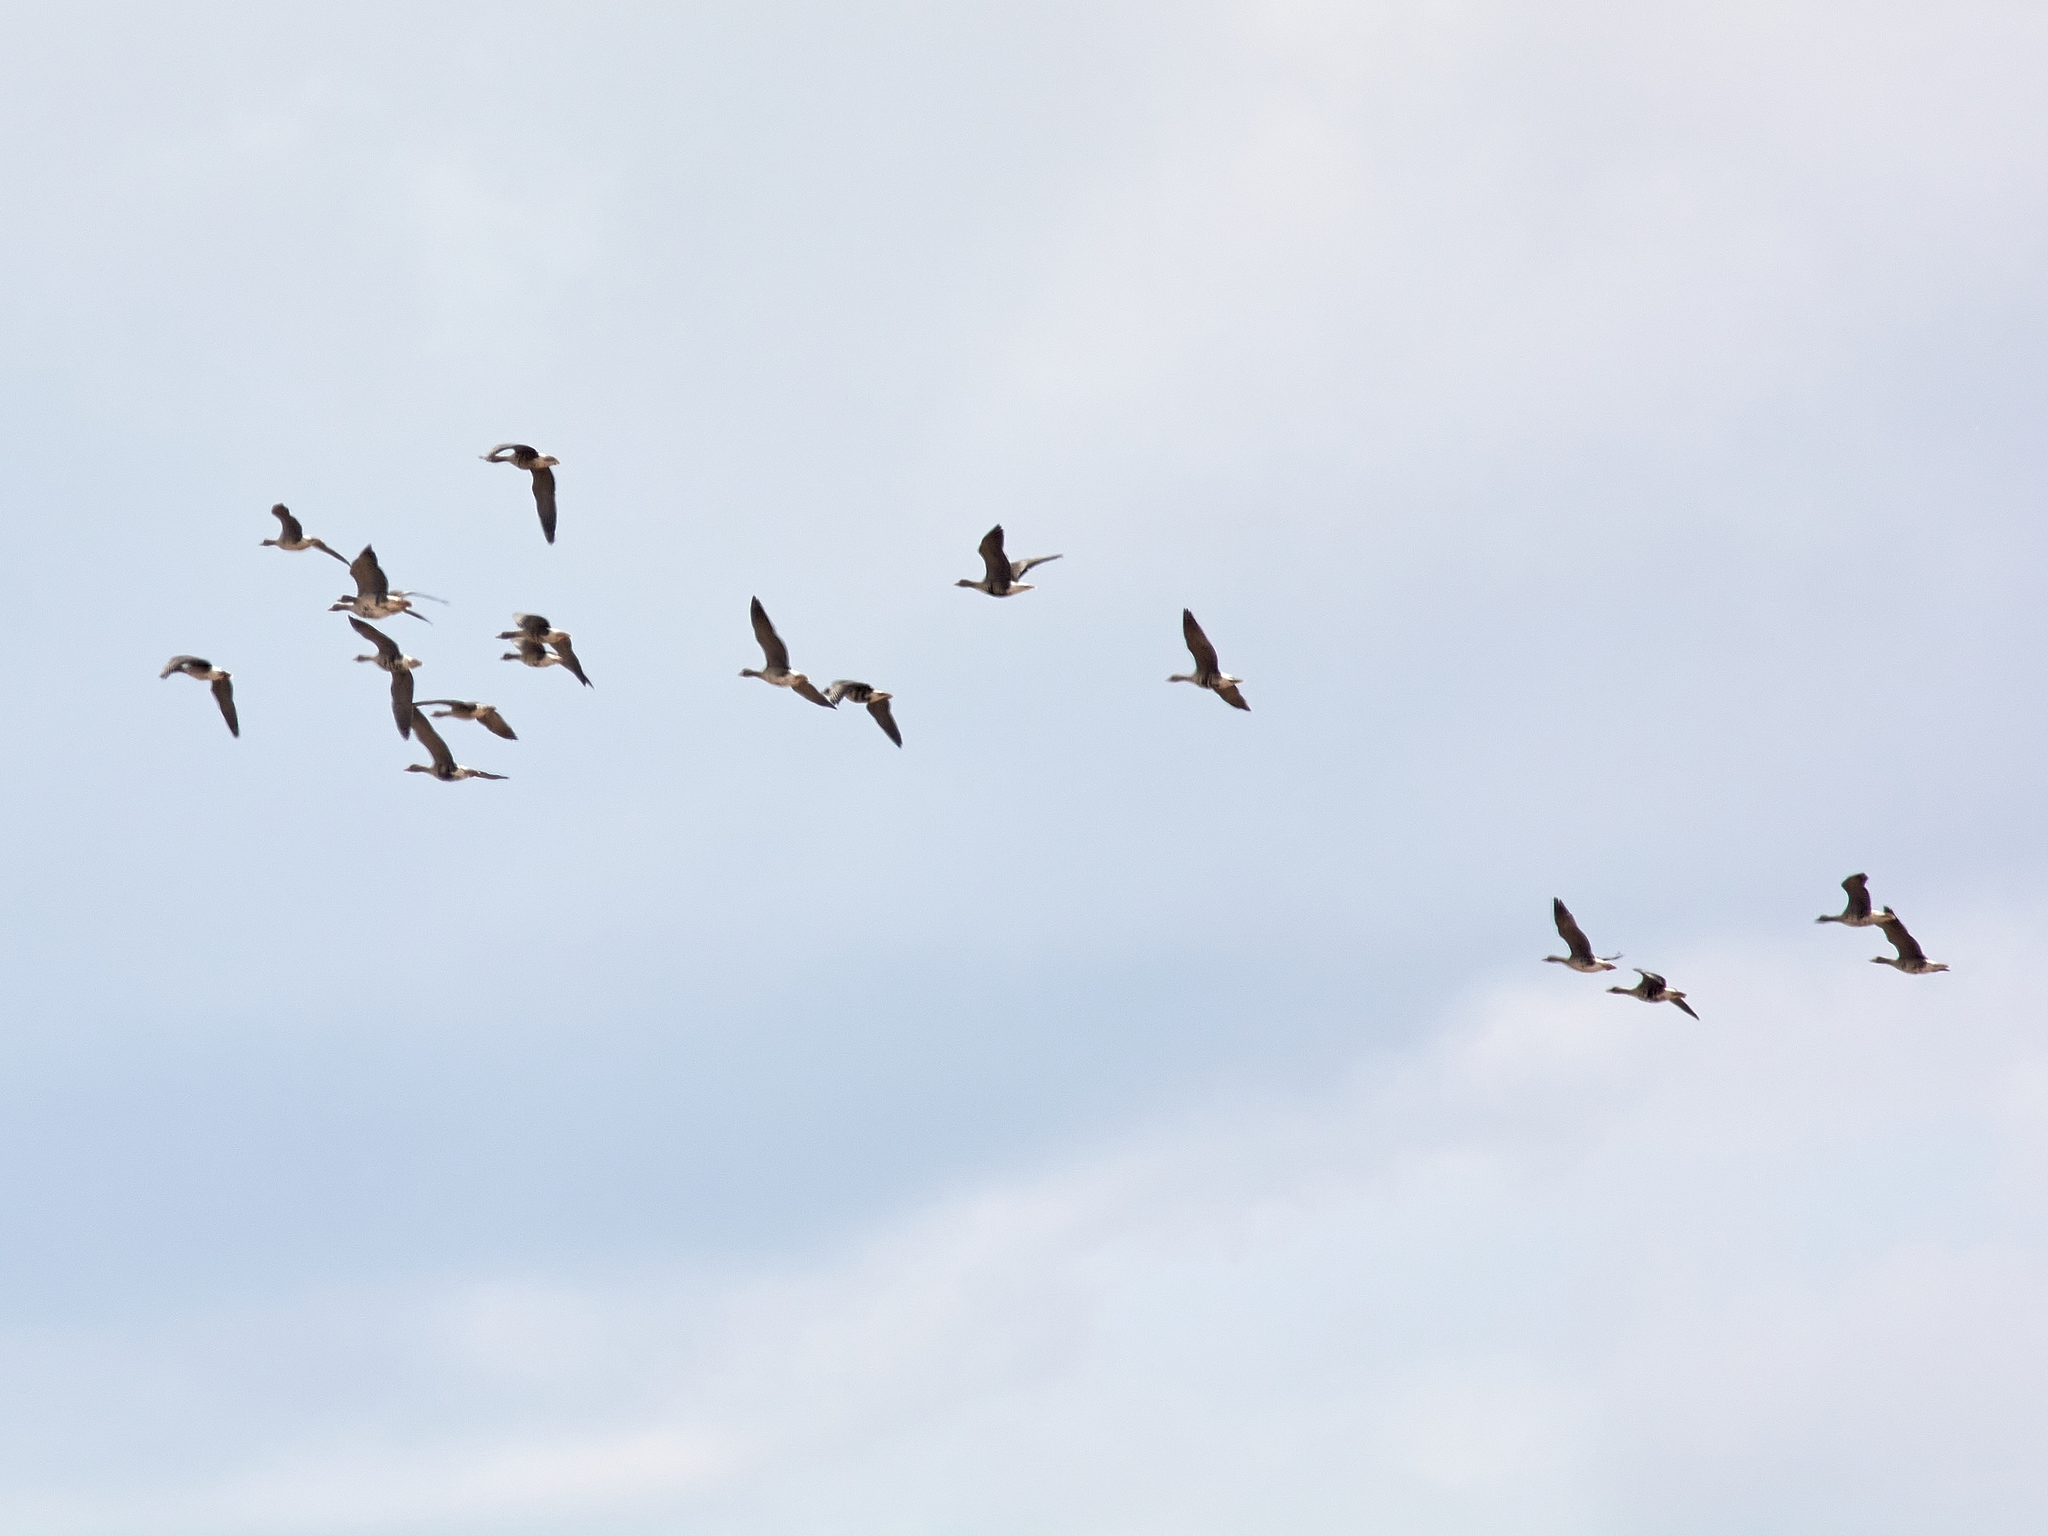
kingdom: Animalia
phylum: Chordata
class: Aves
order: Anseriformes
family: Anatidae
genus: Anser
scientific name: Anser albifrons
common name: Greater white-fronted goose
